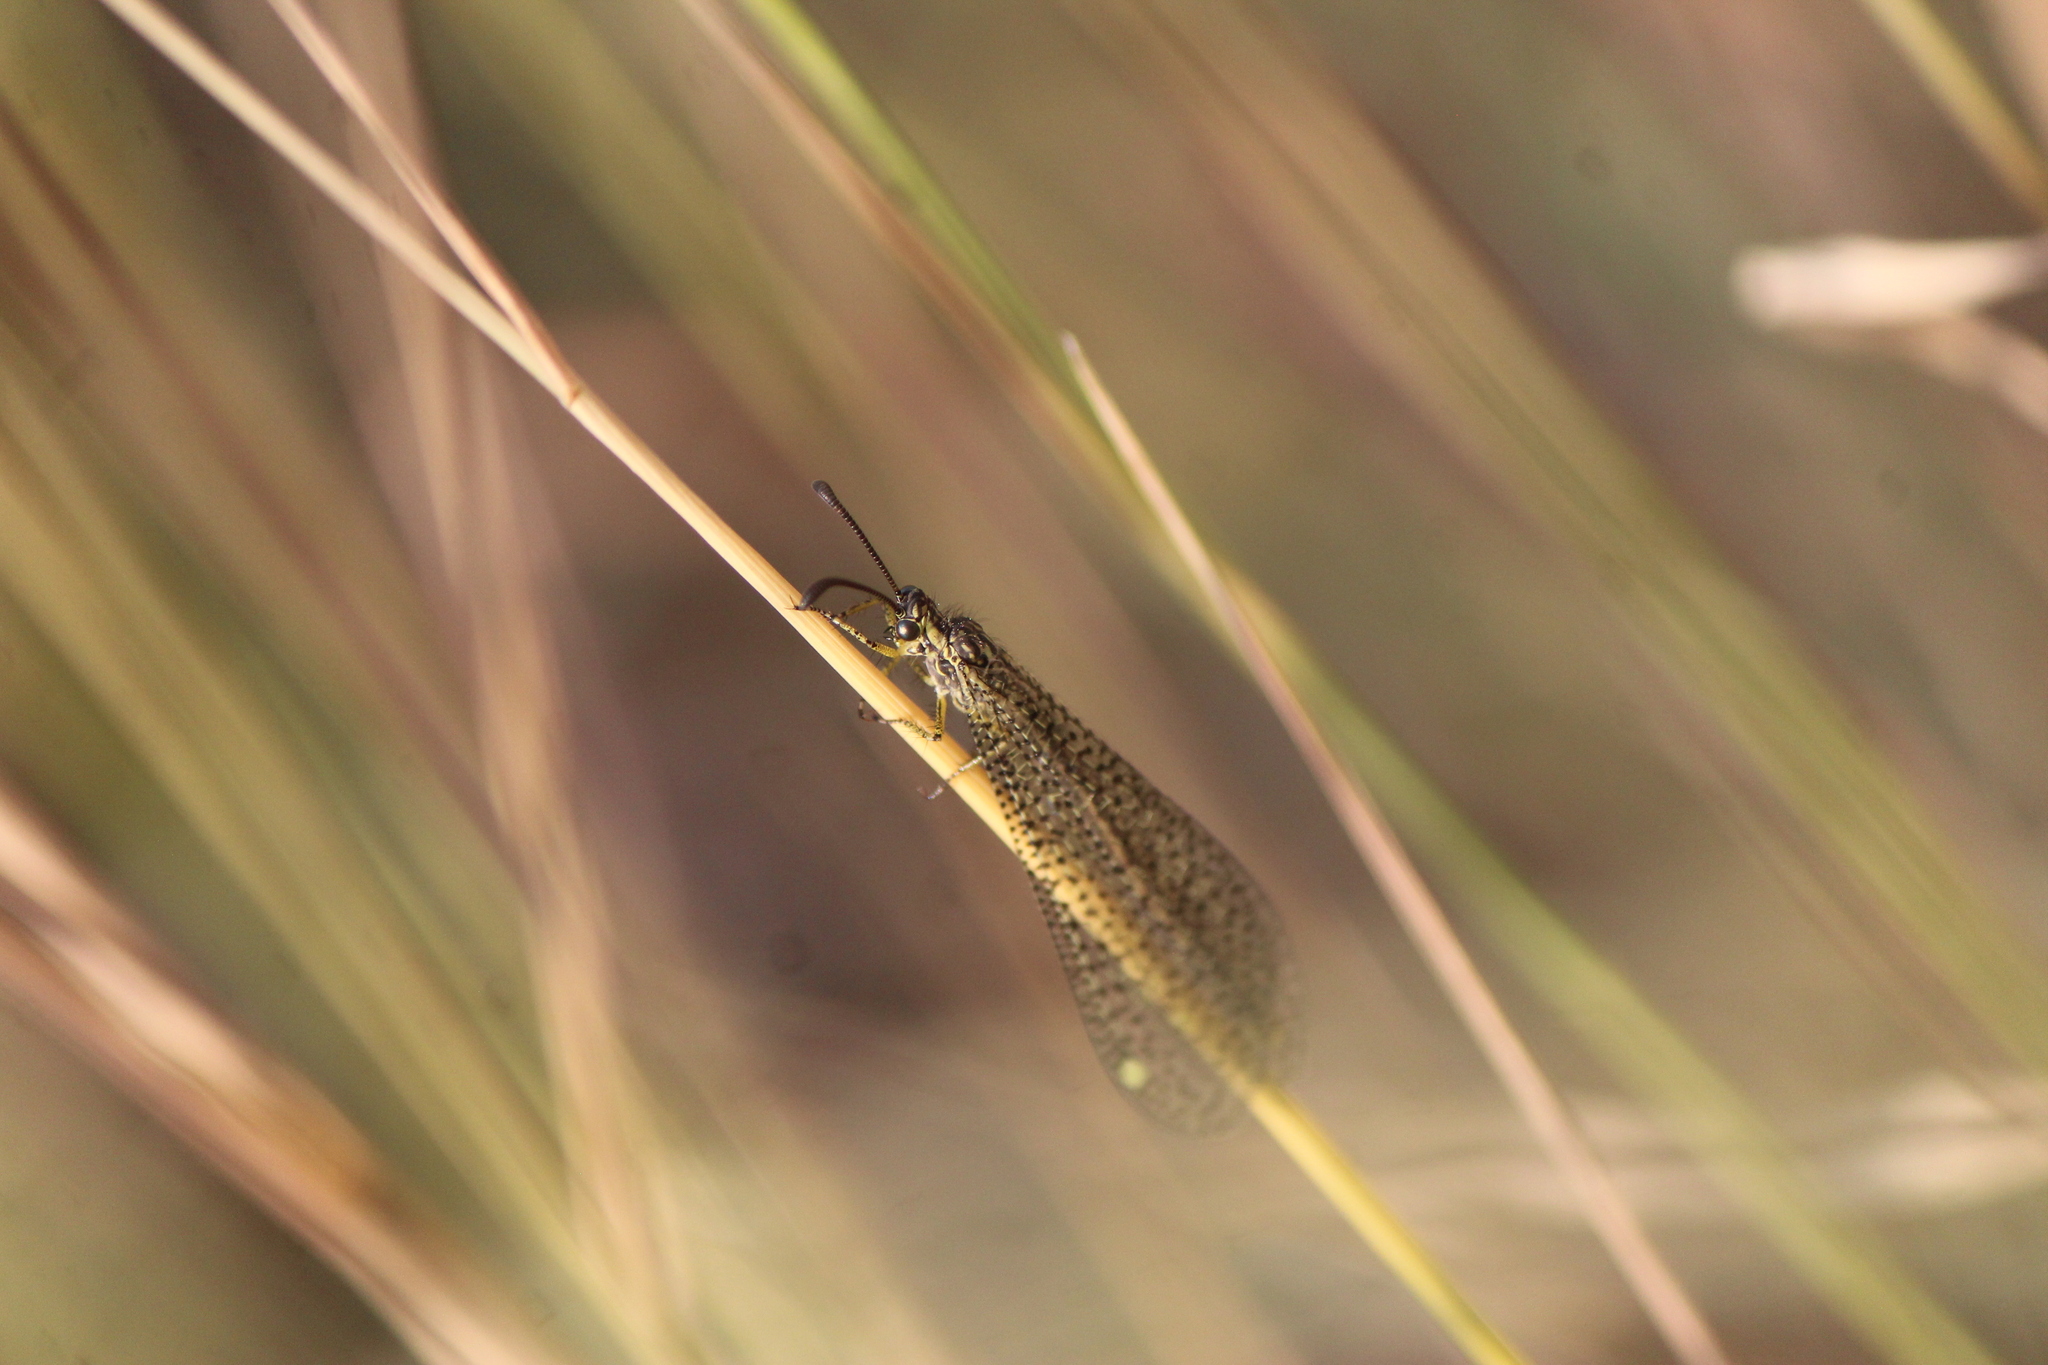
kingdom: Animalia
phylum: Arthropoda
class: Insecta
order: Neuroptera
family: Myrmeleontidae
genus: Brachynemurus
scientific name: Brachynemurus versutus
